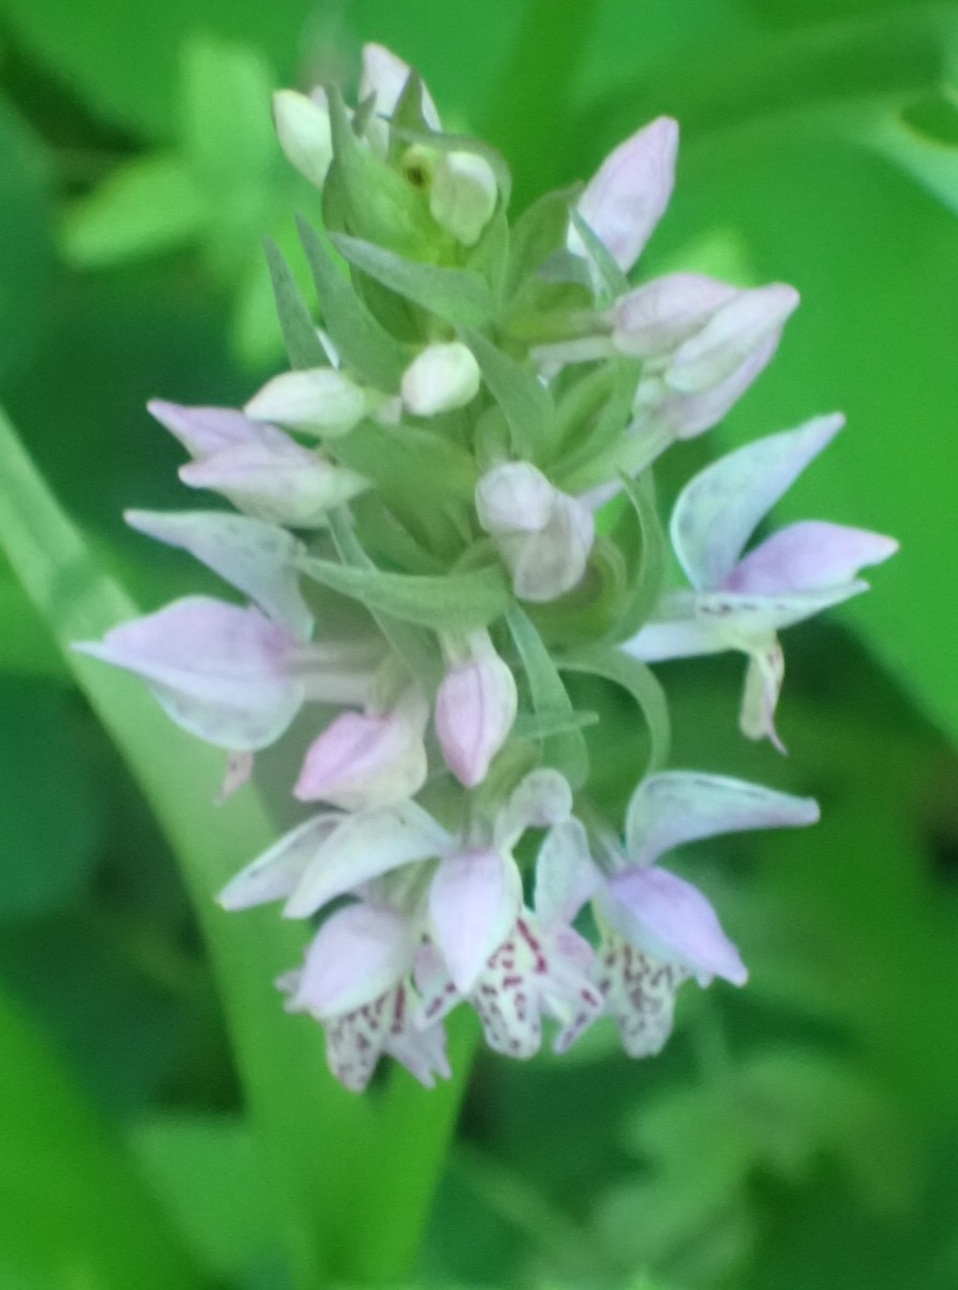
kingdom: Plantae
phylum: Tracheophyta
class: Liliopsida
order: Asparagales
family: Orchidaceae
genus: Dactylorhiza
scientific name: Dactylorhiza sibirica
